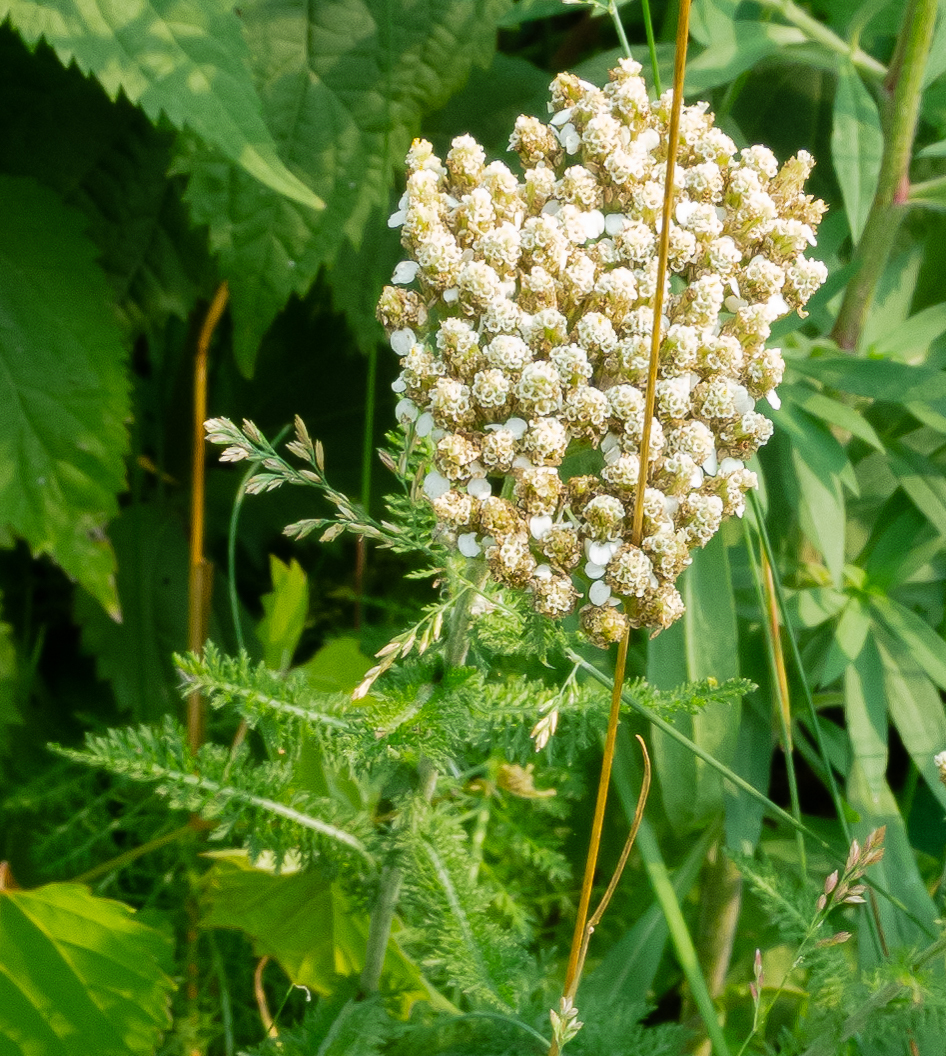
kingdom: Plantae
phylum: Tracheophyta
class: Magnoliopsida
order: Asterales
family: Asteraceae
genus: Achillea
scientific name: Achillea millefolium
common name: Yarrow
